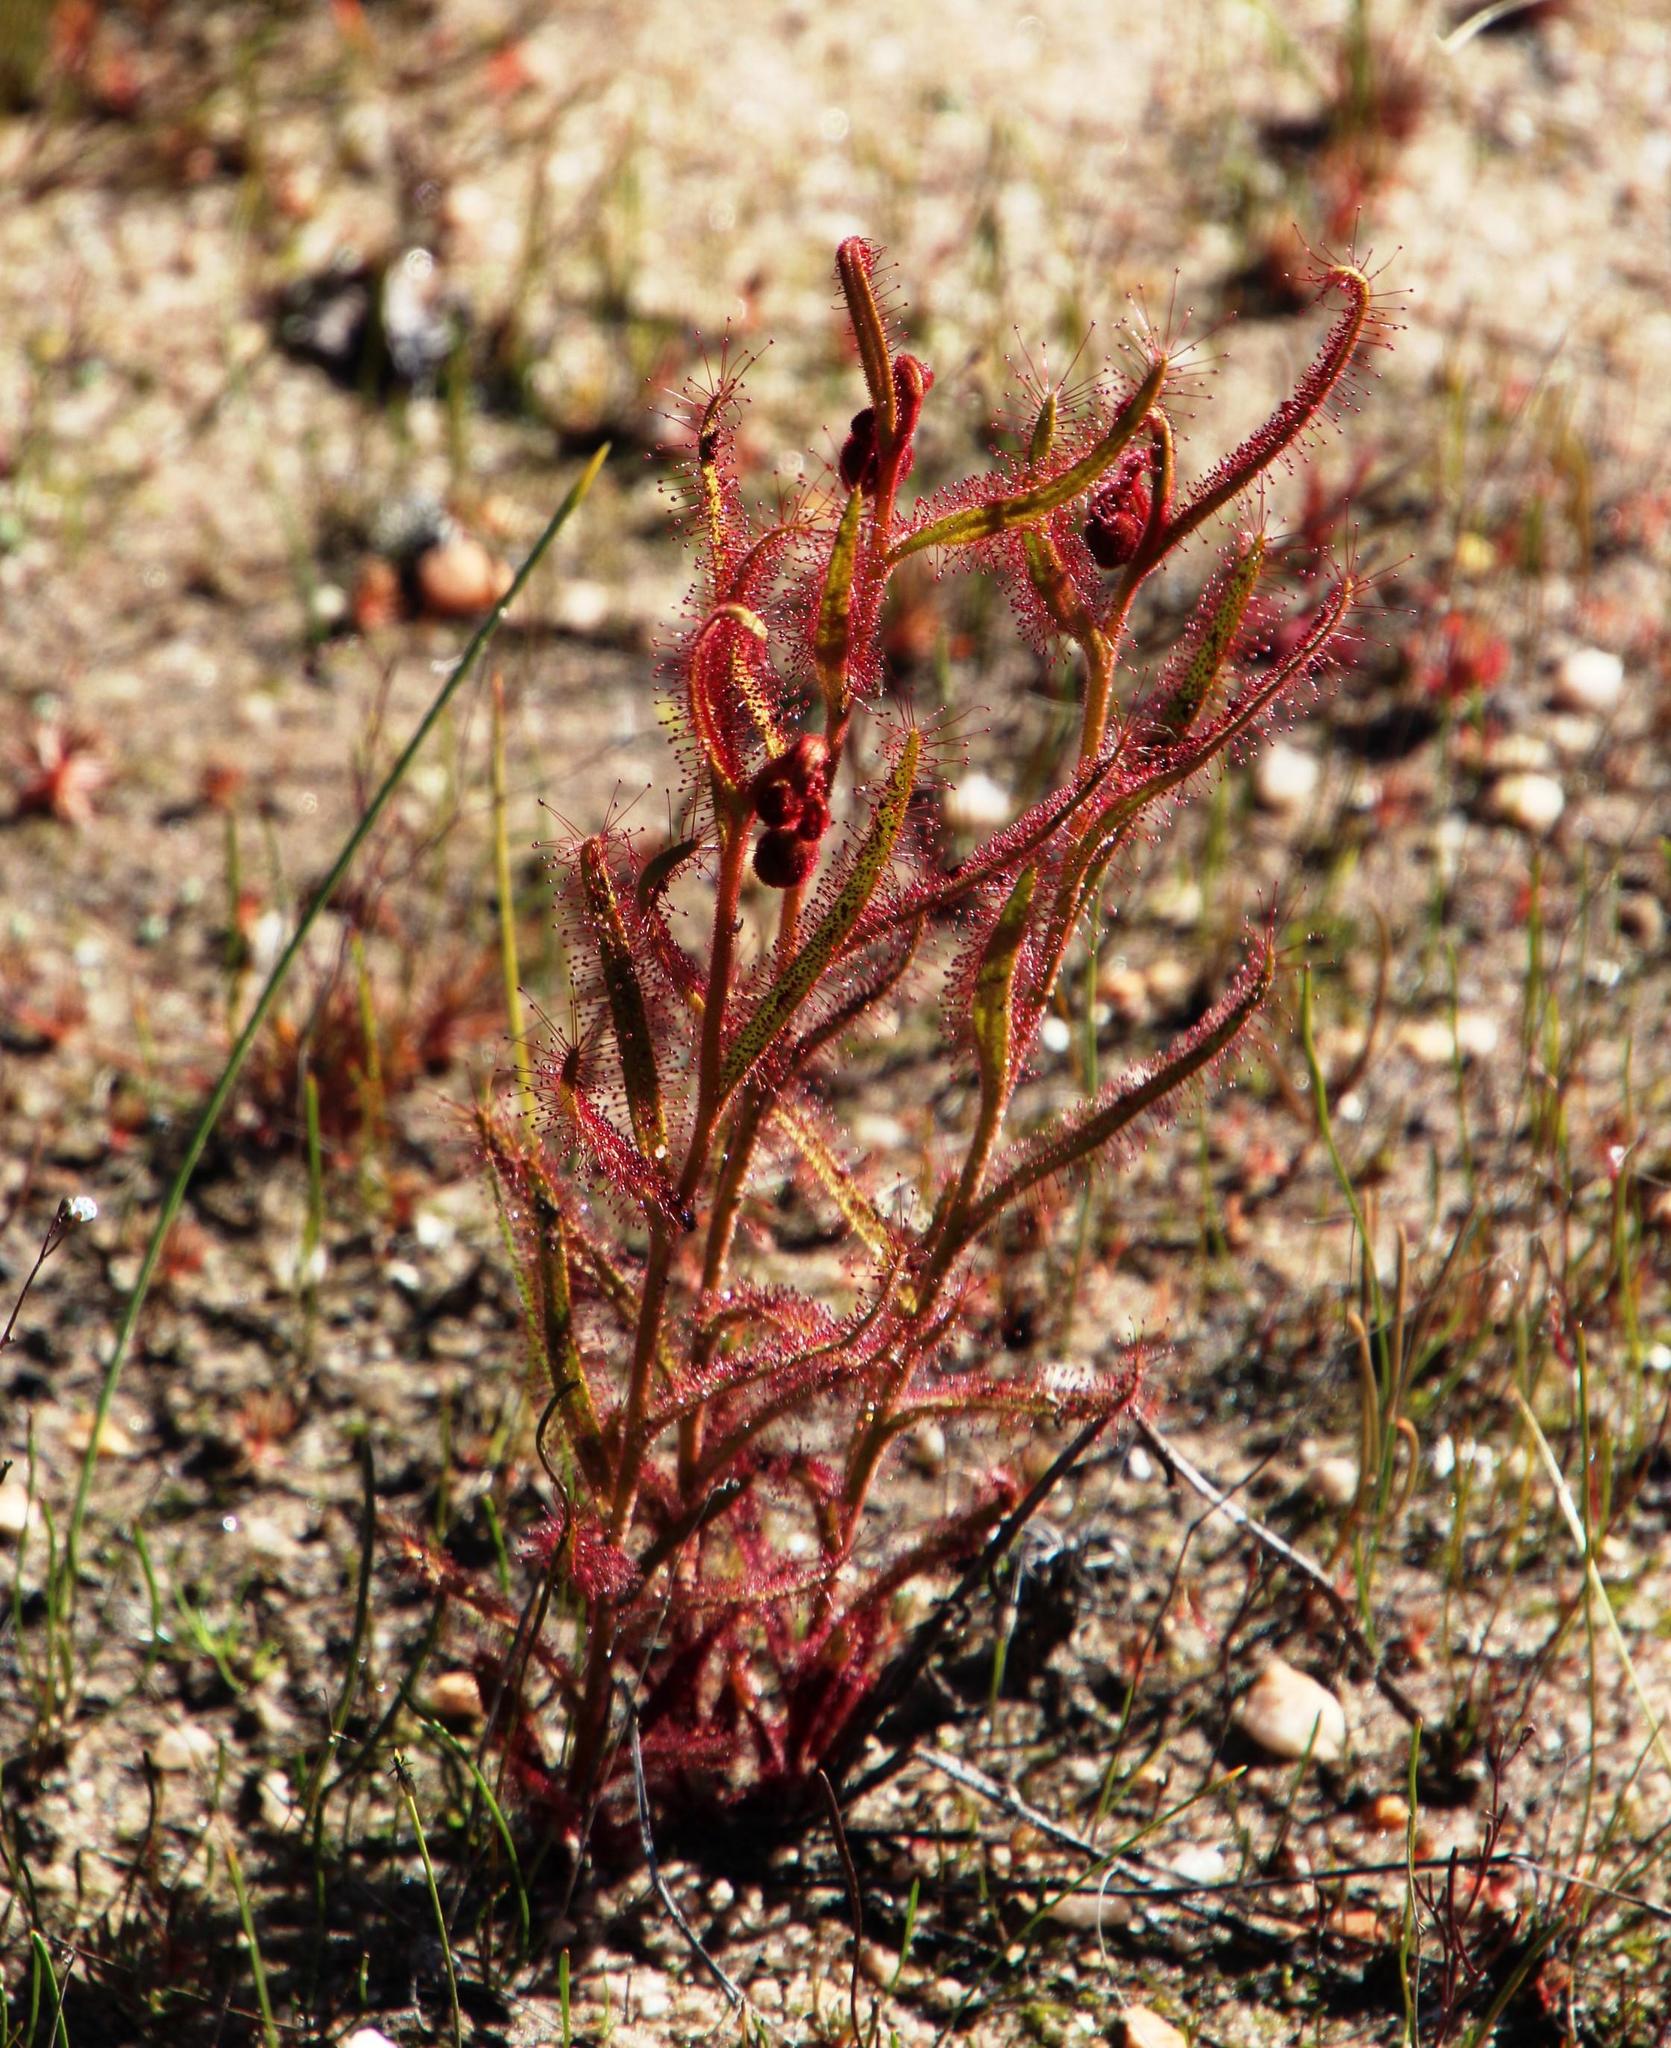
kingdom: Plantae
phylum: Tracheophyta
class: Magnoliopsida
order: Caryophyllales
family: Droseraceae
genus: Drosera
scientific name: Drosera cistiflora
